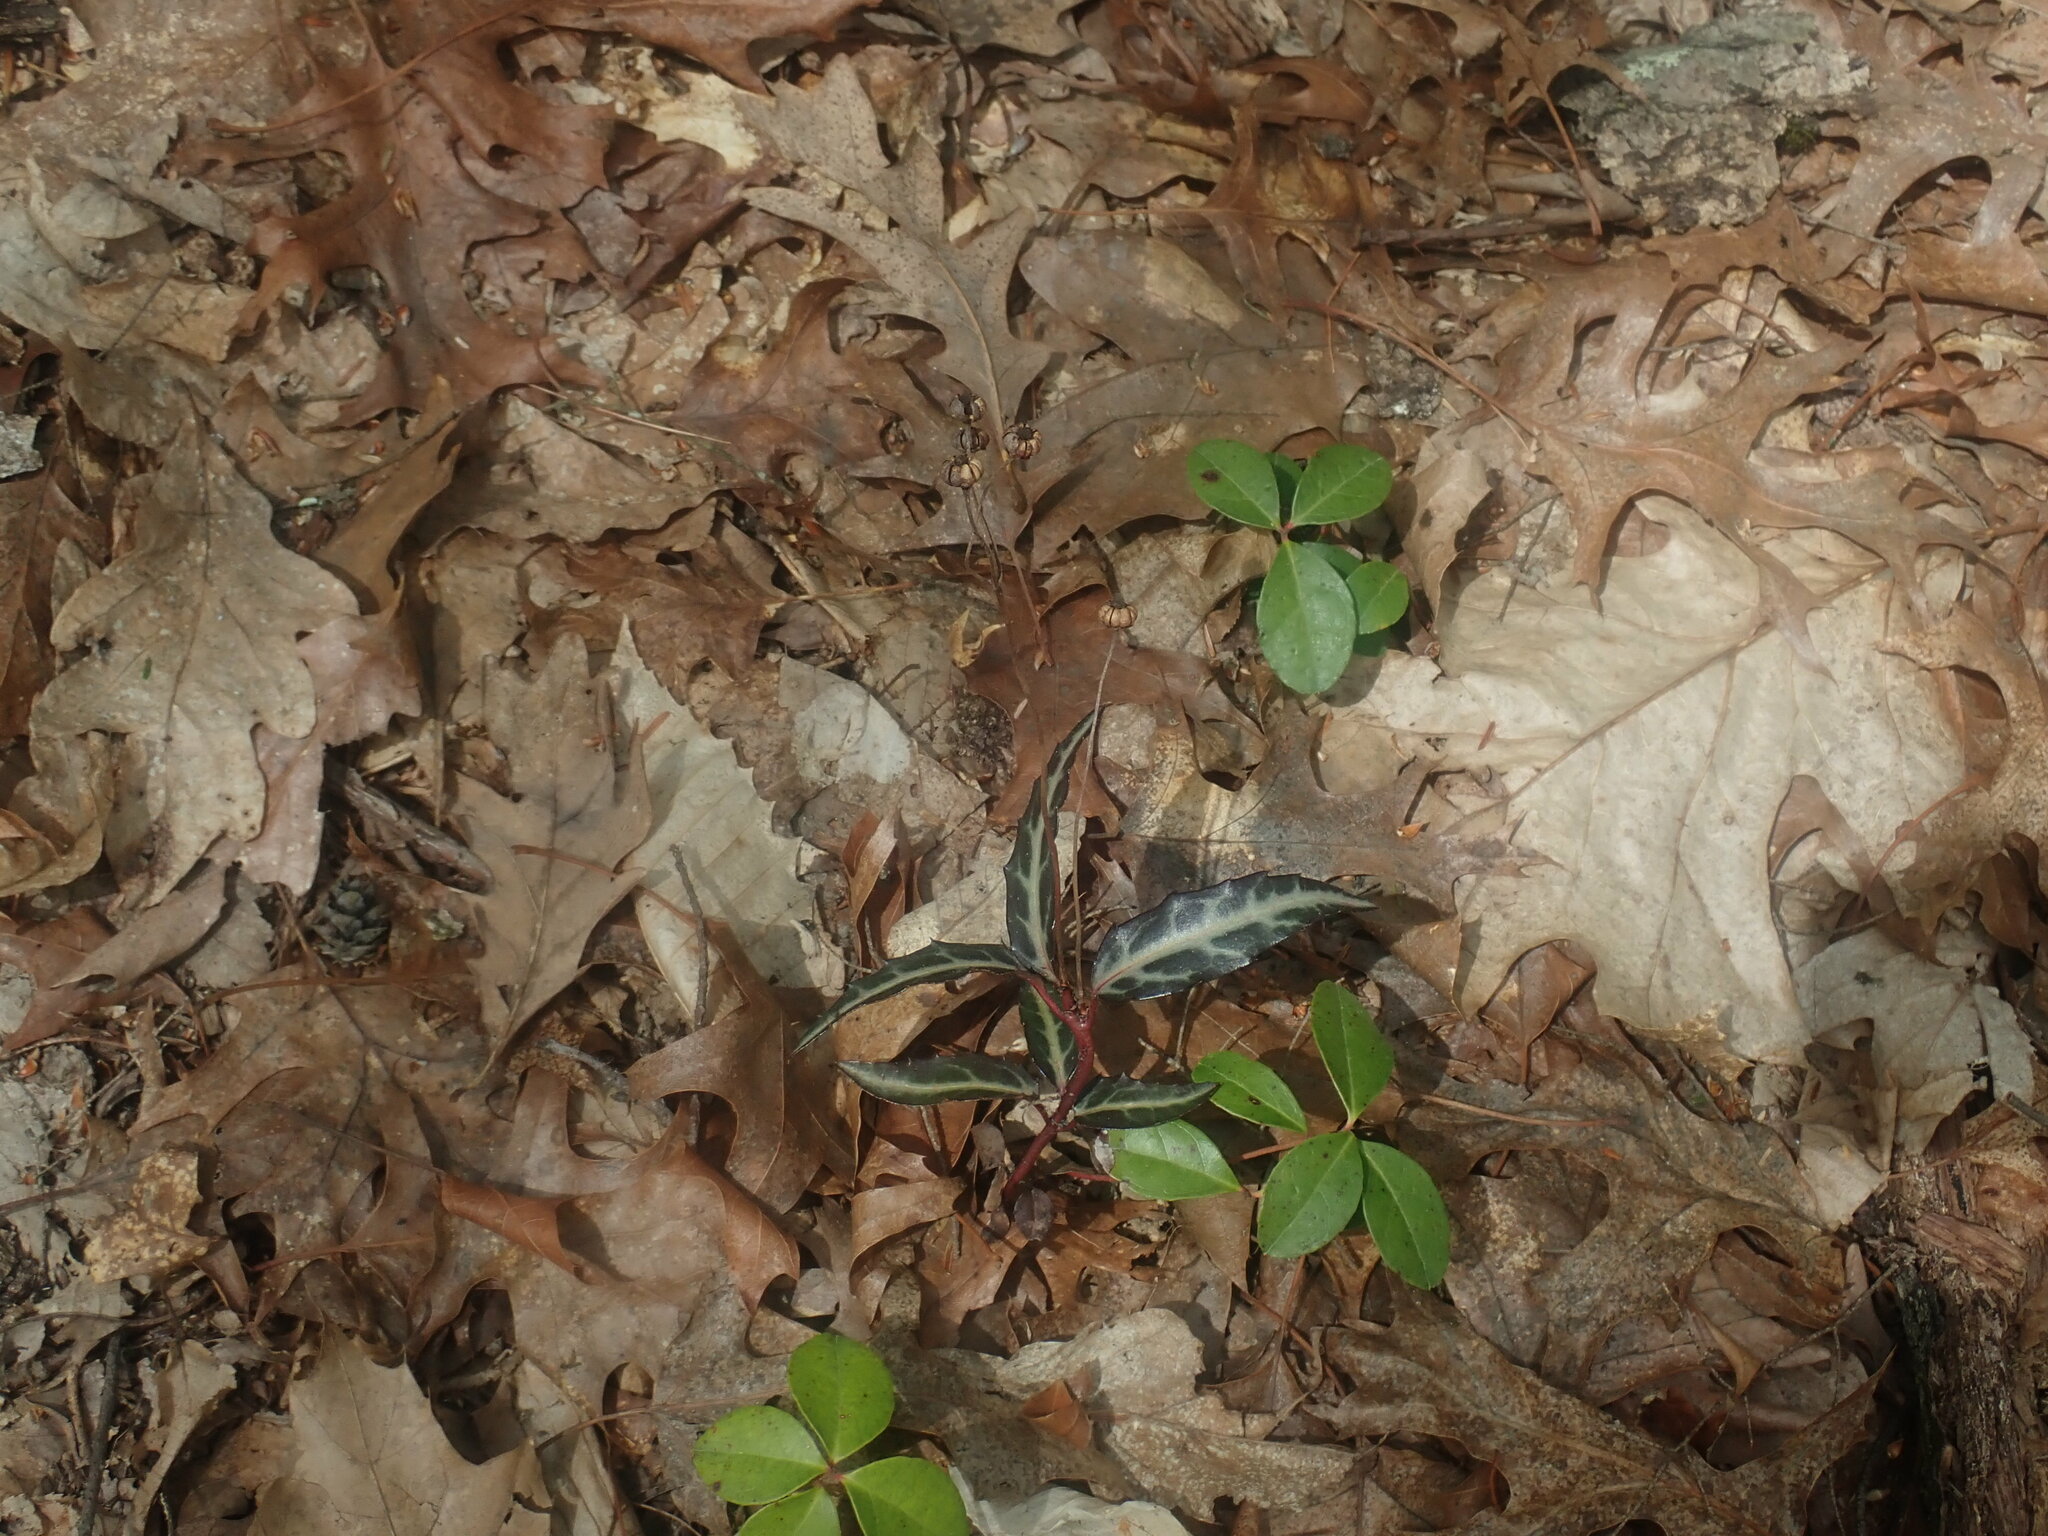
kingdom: Plantae
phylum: Tracheophyta
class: Magnoliopsida
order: Ericales
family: Ericaceae
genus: Chimaphila
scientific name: Chimaphila maculata
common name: Spotted pipsissewa
